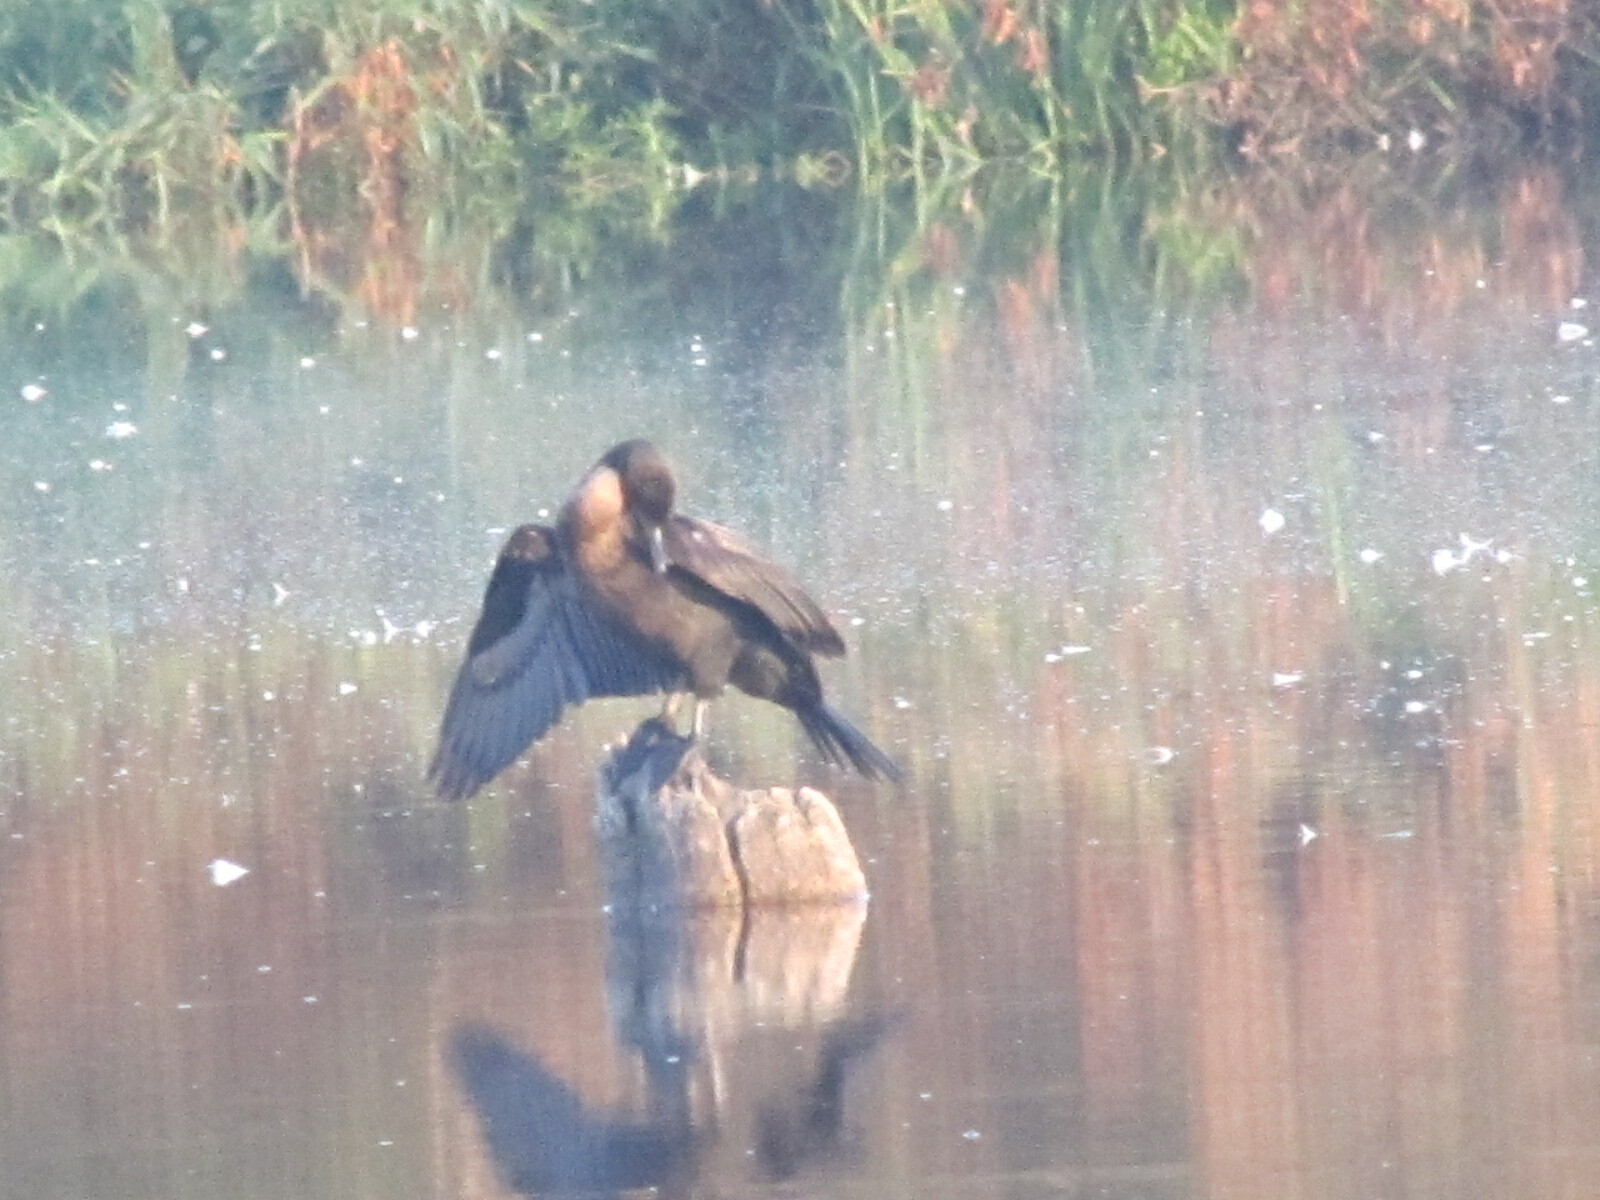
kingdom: Animalia
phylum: Chordata
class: Aves
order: Suliformes
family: Phalacrocoracidae
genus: Phalacrocorax
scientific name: Phalacrocorax auritus
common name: Double-crested cormorant
